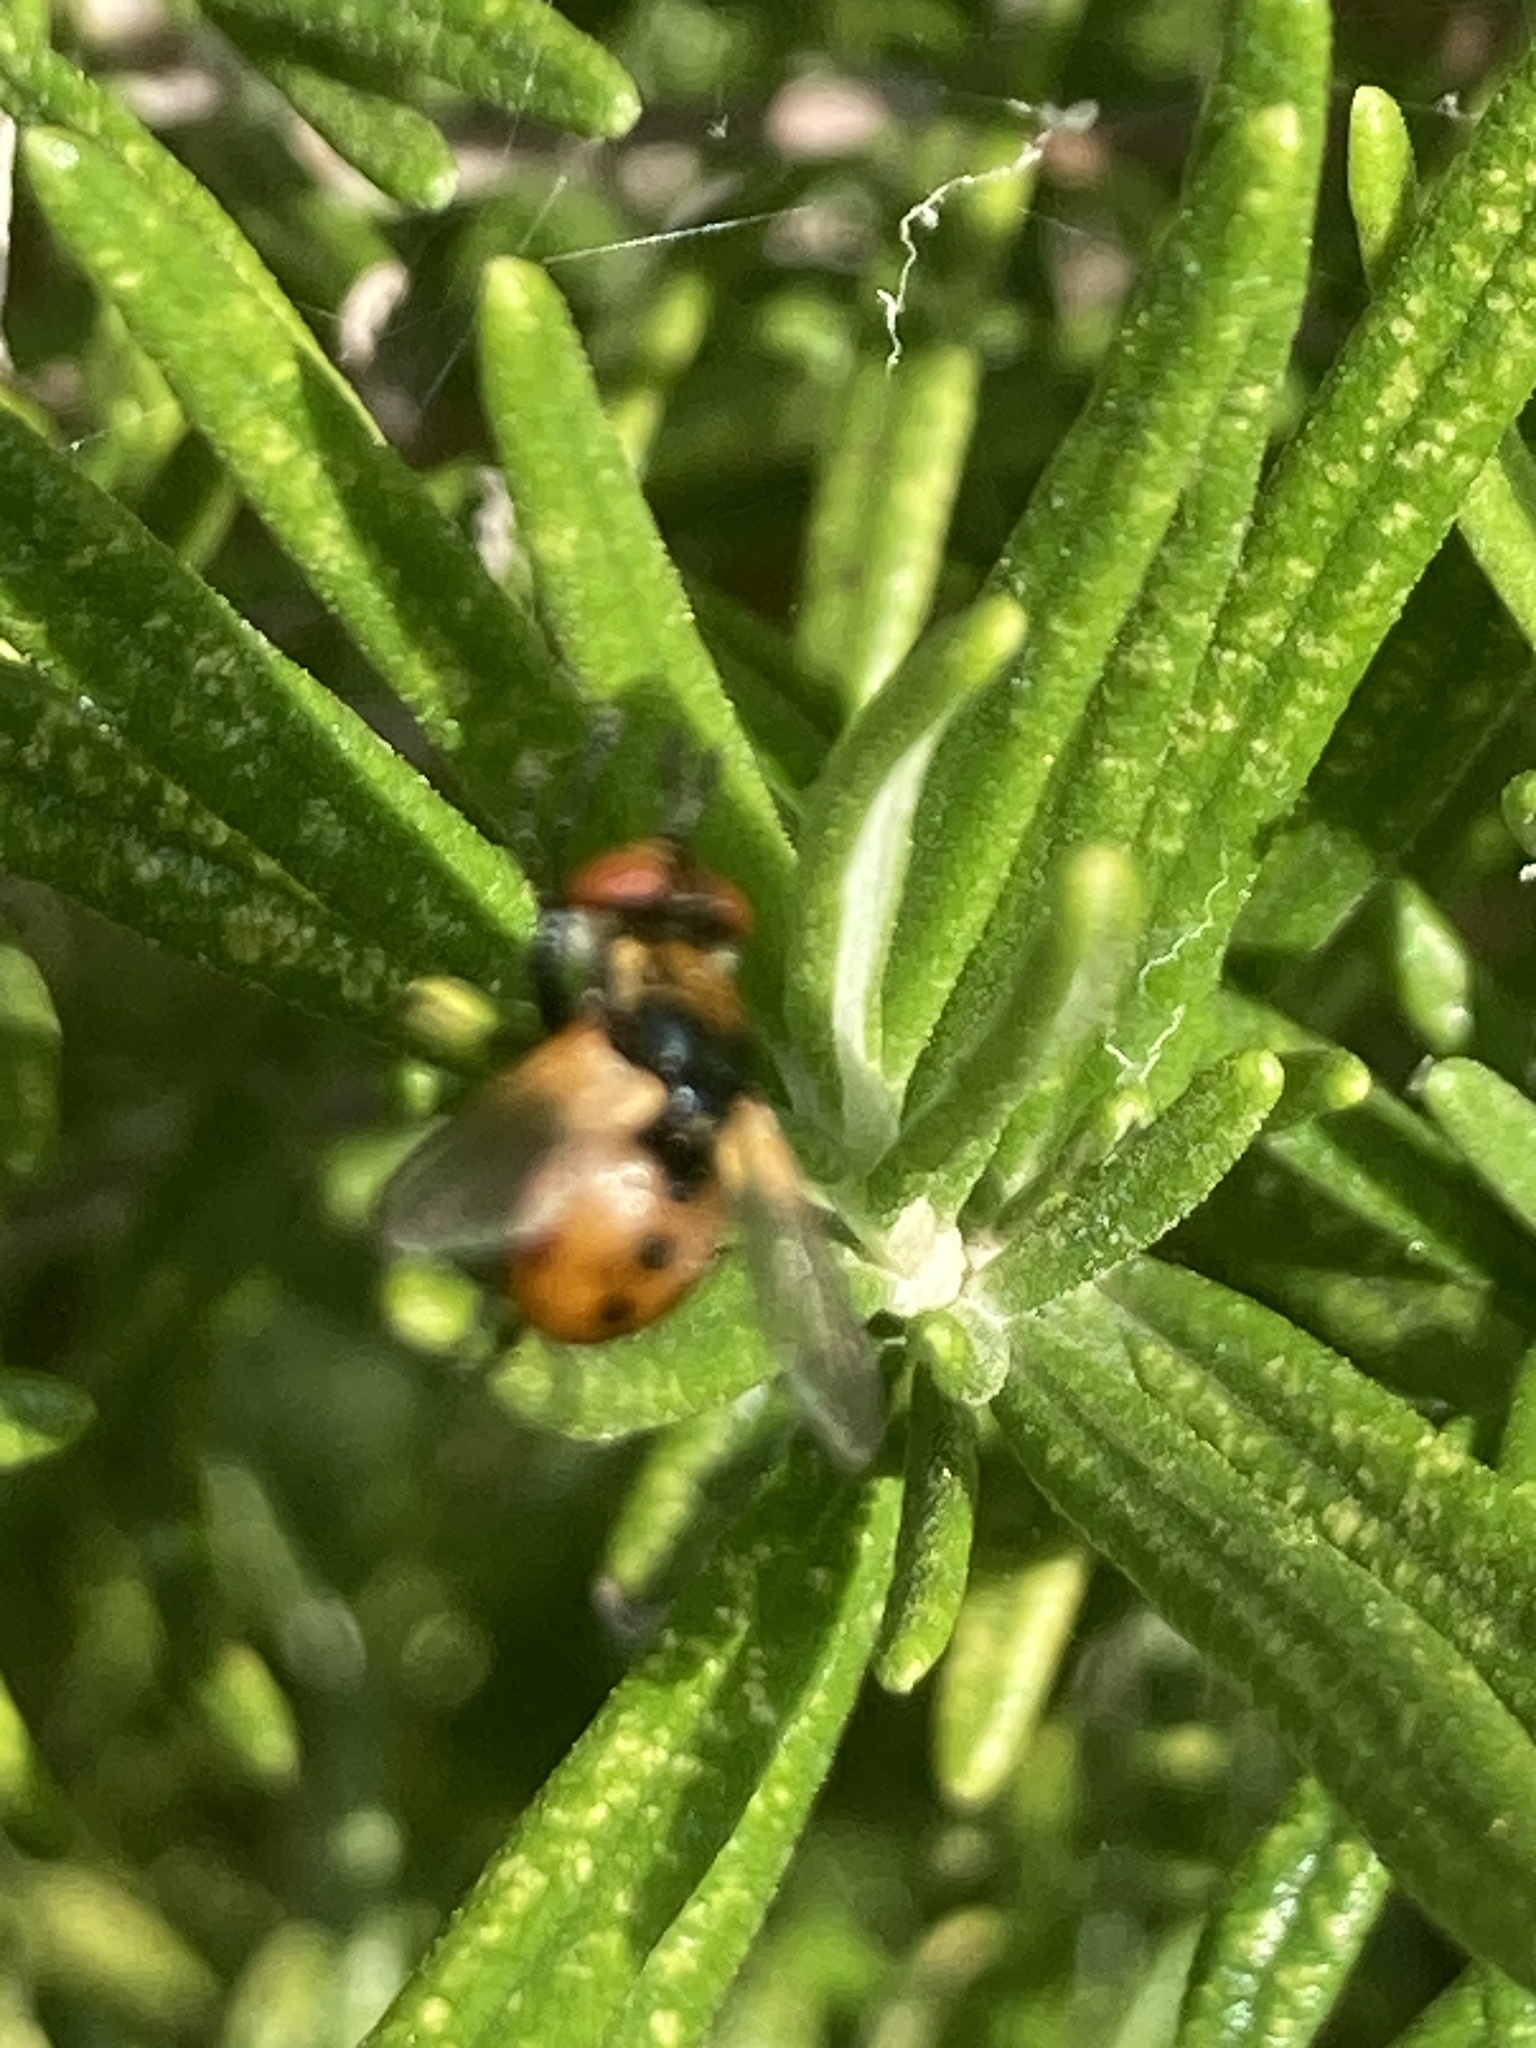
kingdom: Animalia
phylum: Arthropoda
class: Insecta
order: Diptera
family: Tachinidae
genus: Gymnosoma
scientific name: Gymnosoma rotundatum
